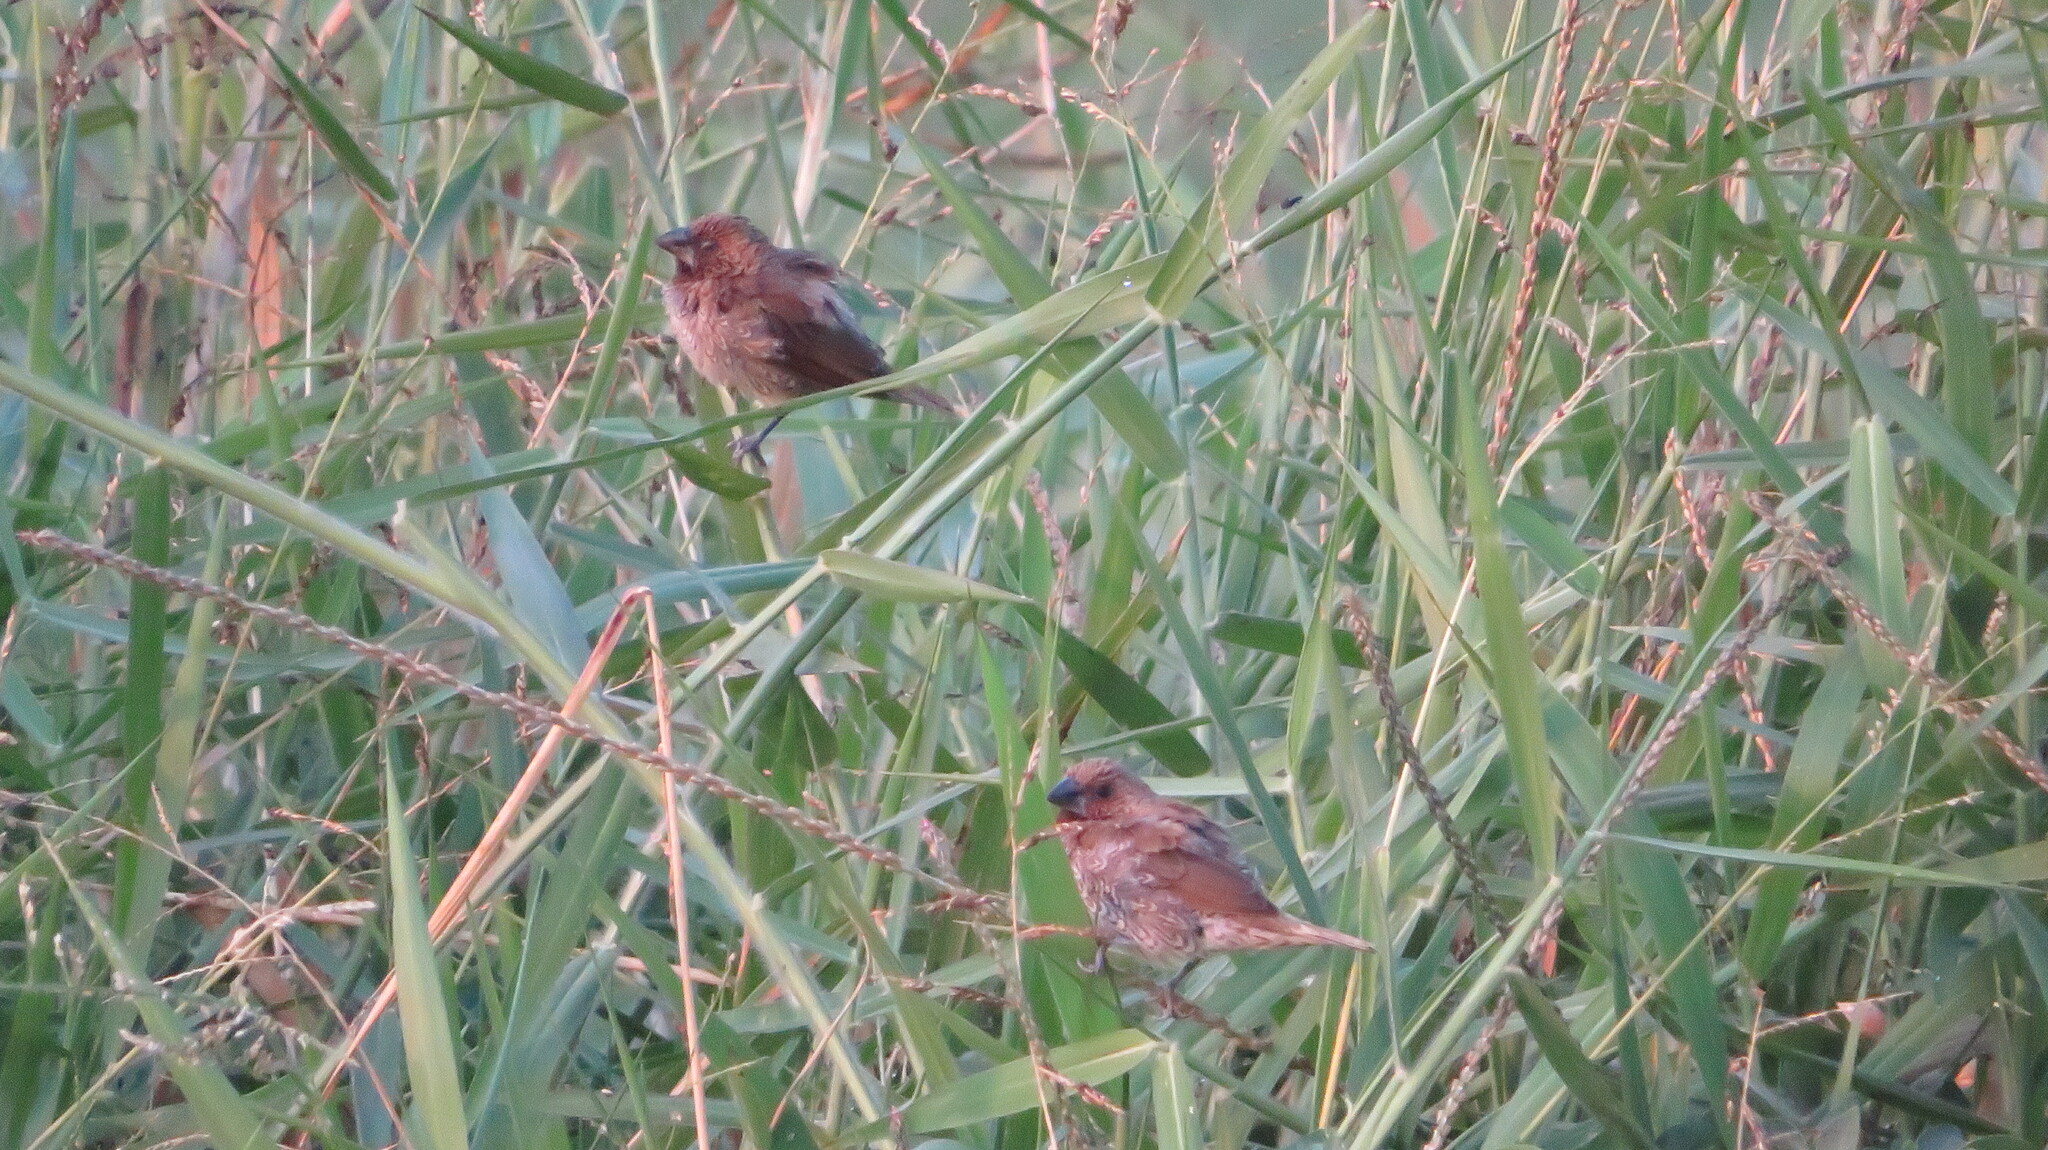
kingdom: Animalia
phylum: Chordata
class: Aves
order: Passeriformes
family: Estrildidae
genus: Lonchura
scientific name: Lonchura punctulata
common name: Scaly-breasted munia
